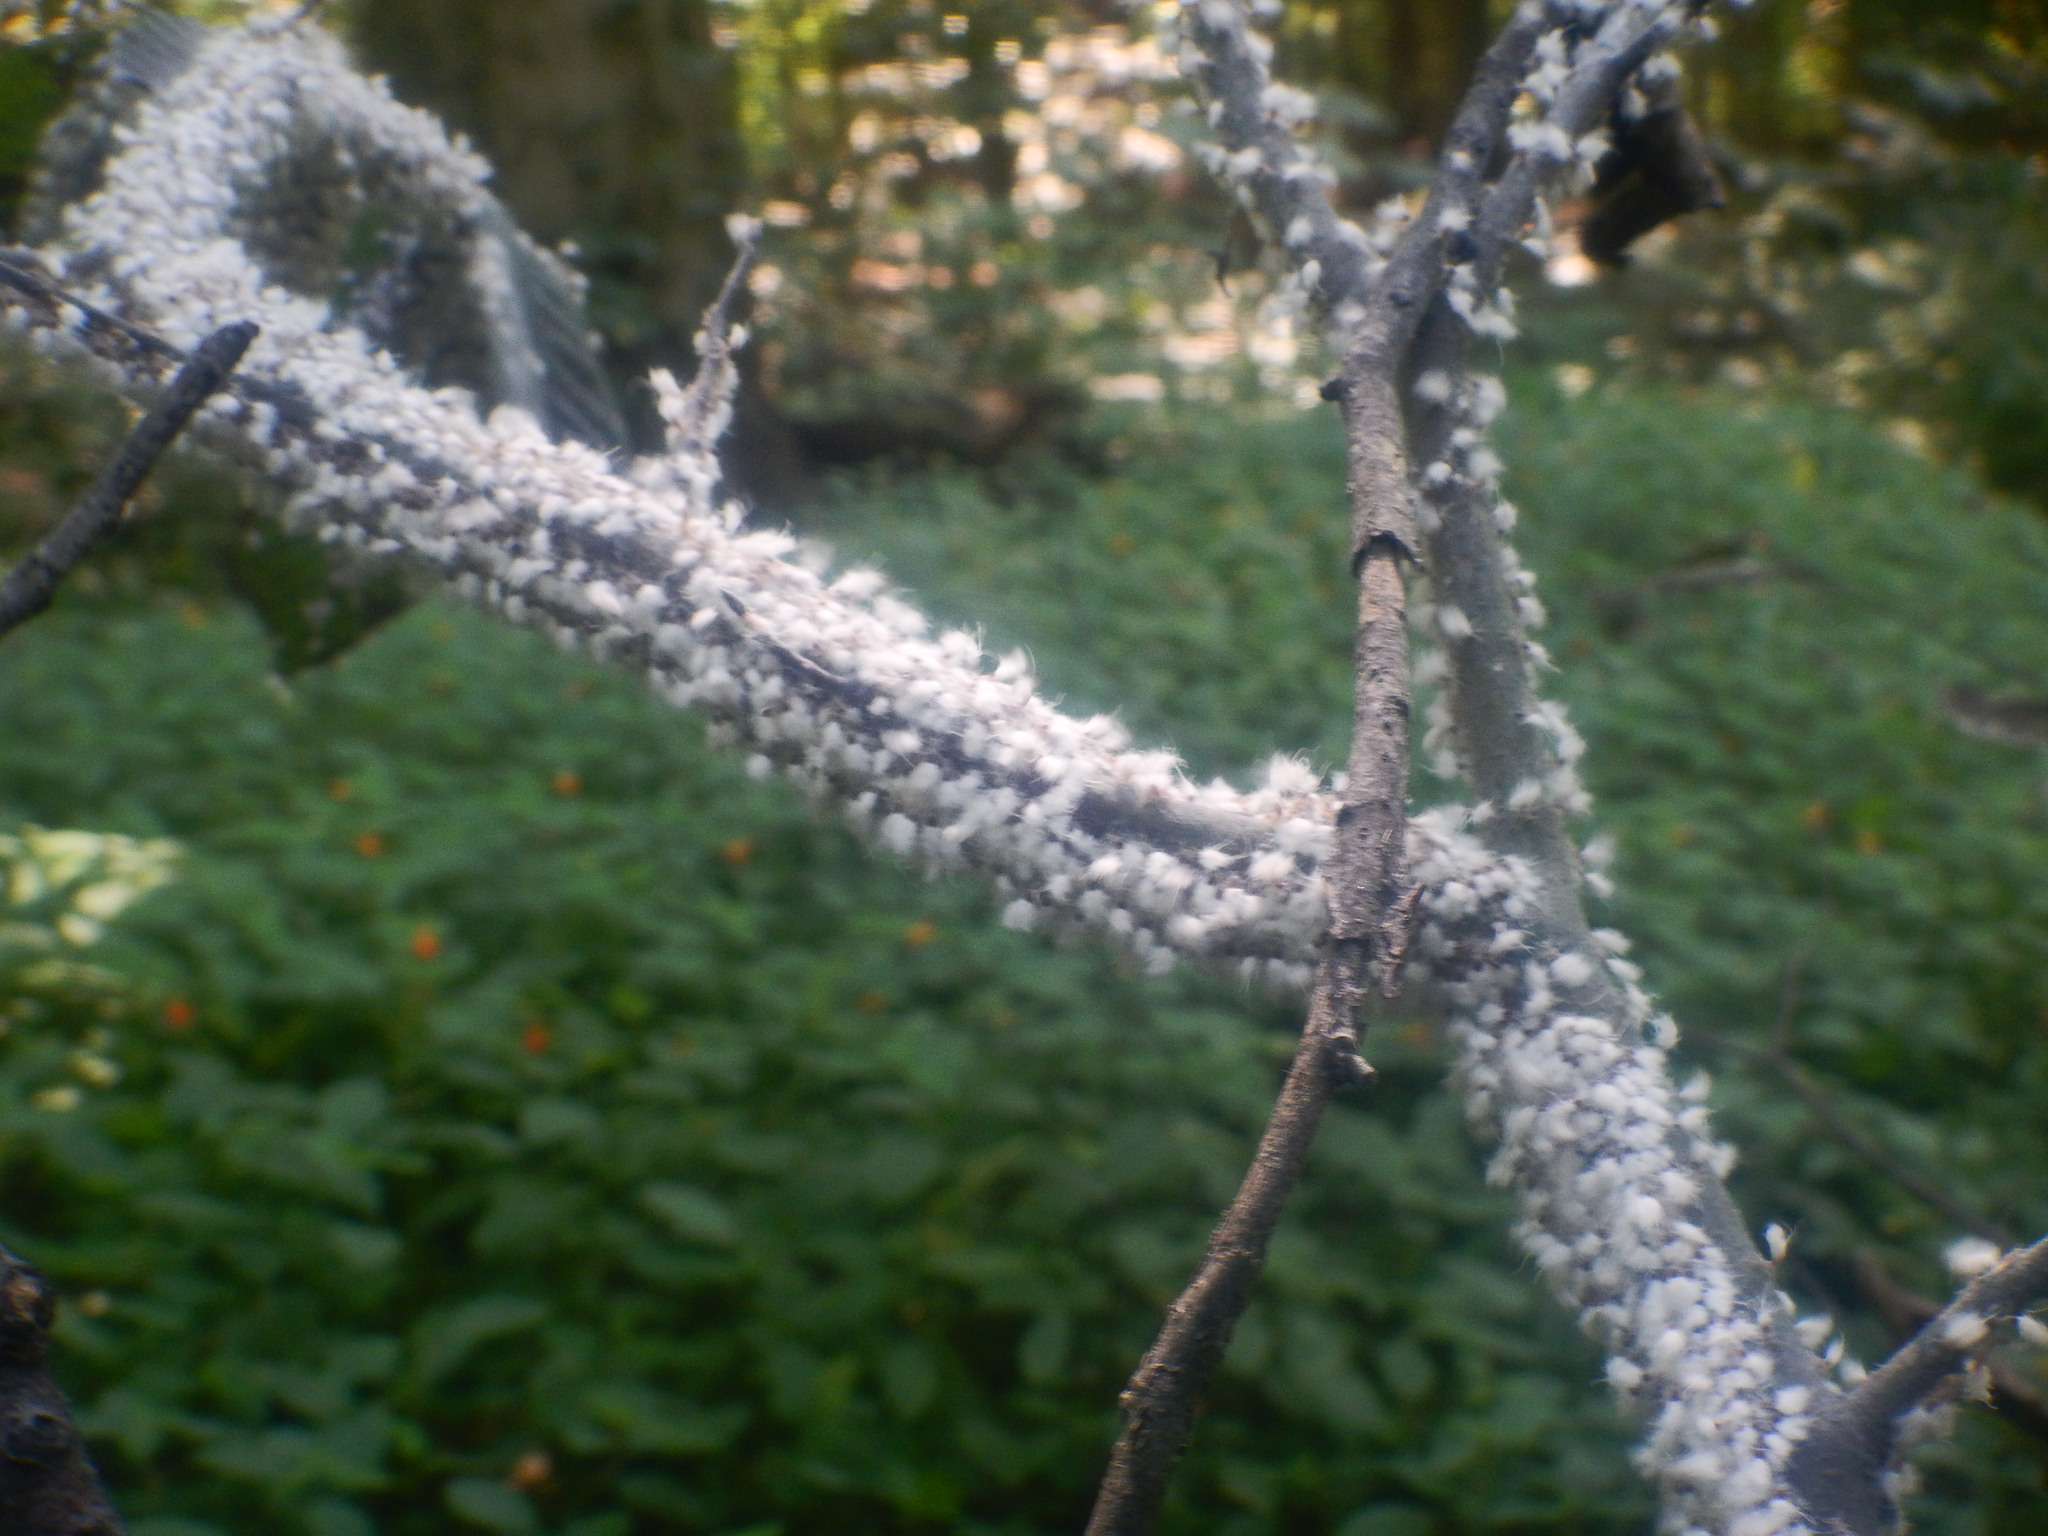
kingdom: Animalia
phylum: Arthropoda
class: Insecta
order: Hemiptera
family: Aphididae
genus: Grylloprociphilus
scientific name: Grylloprociphilus imbricator
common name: Beech blight aphid
